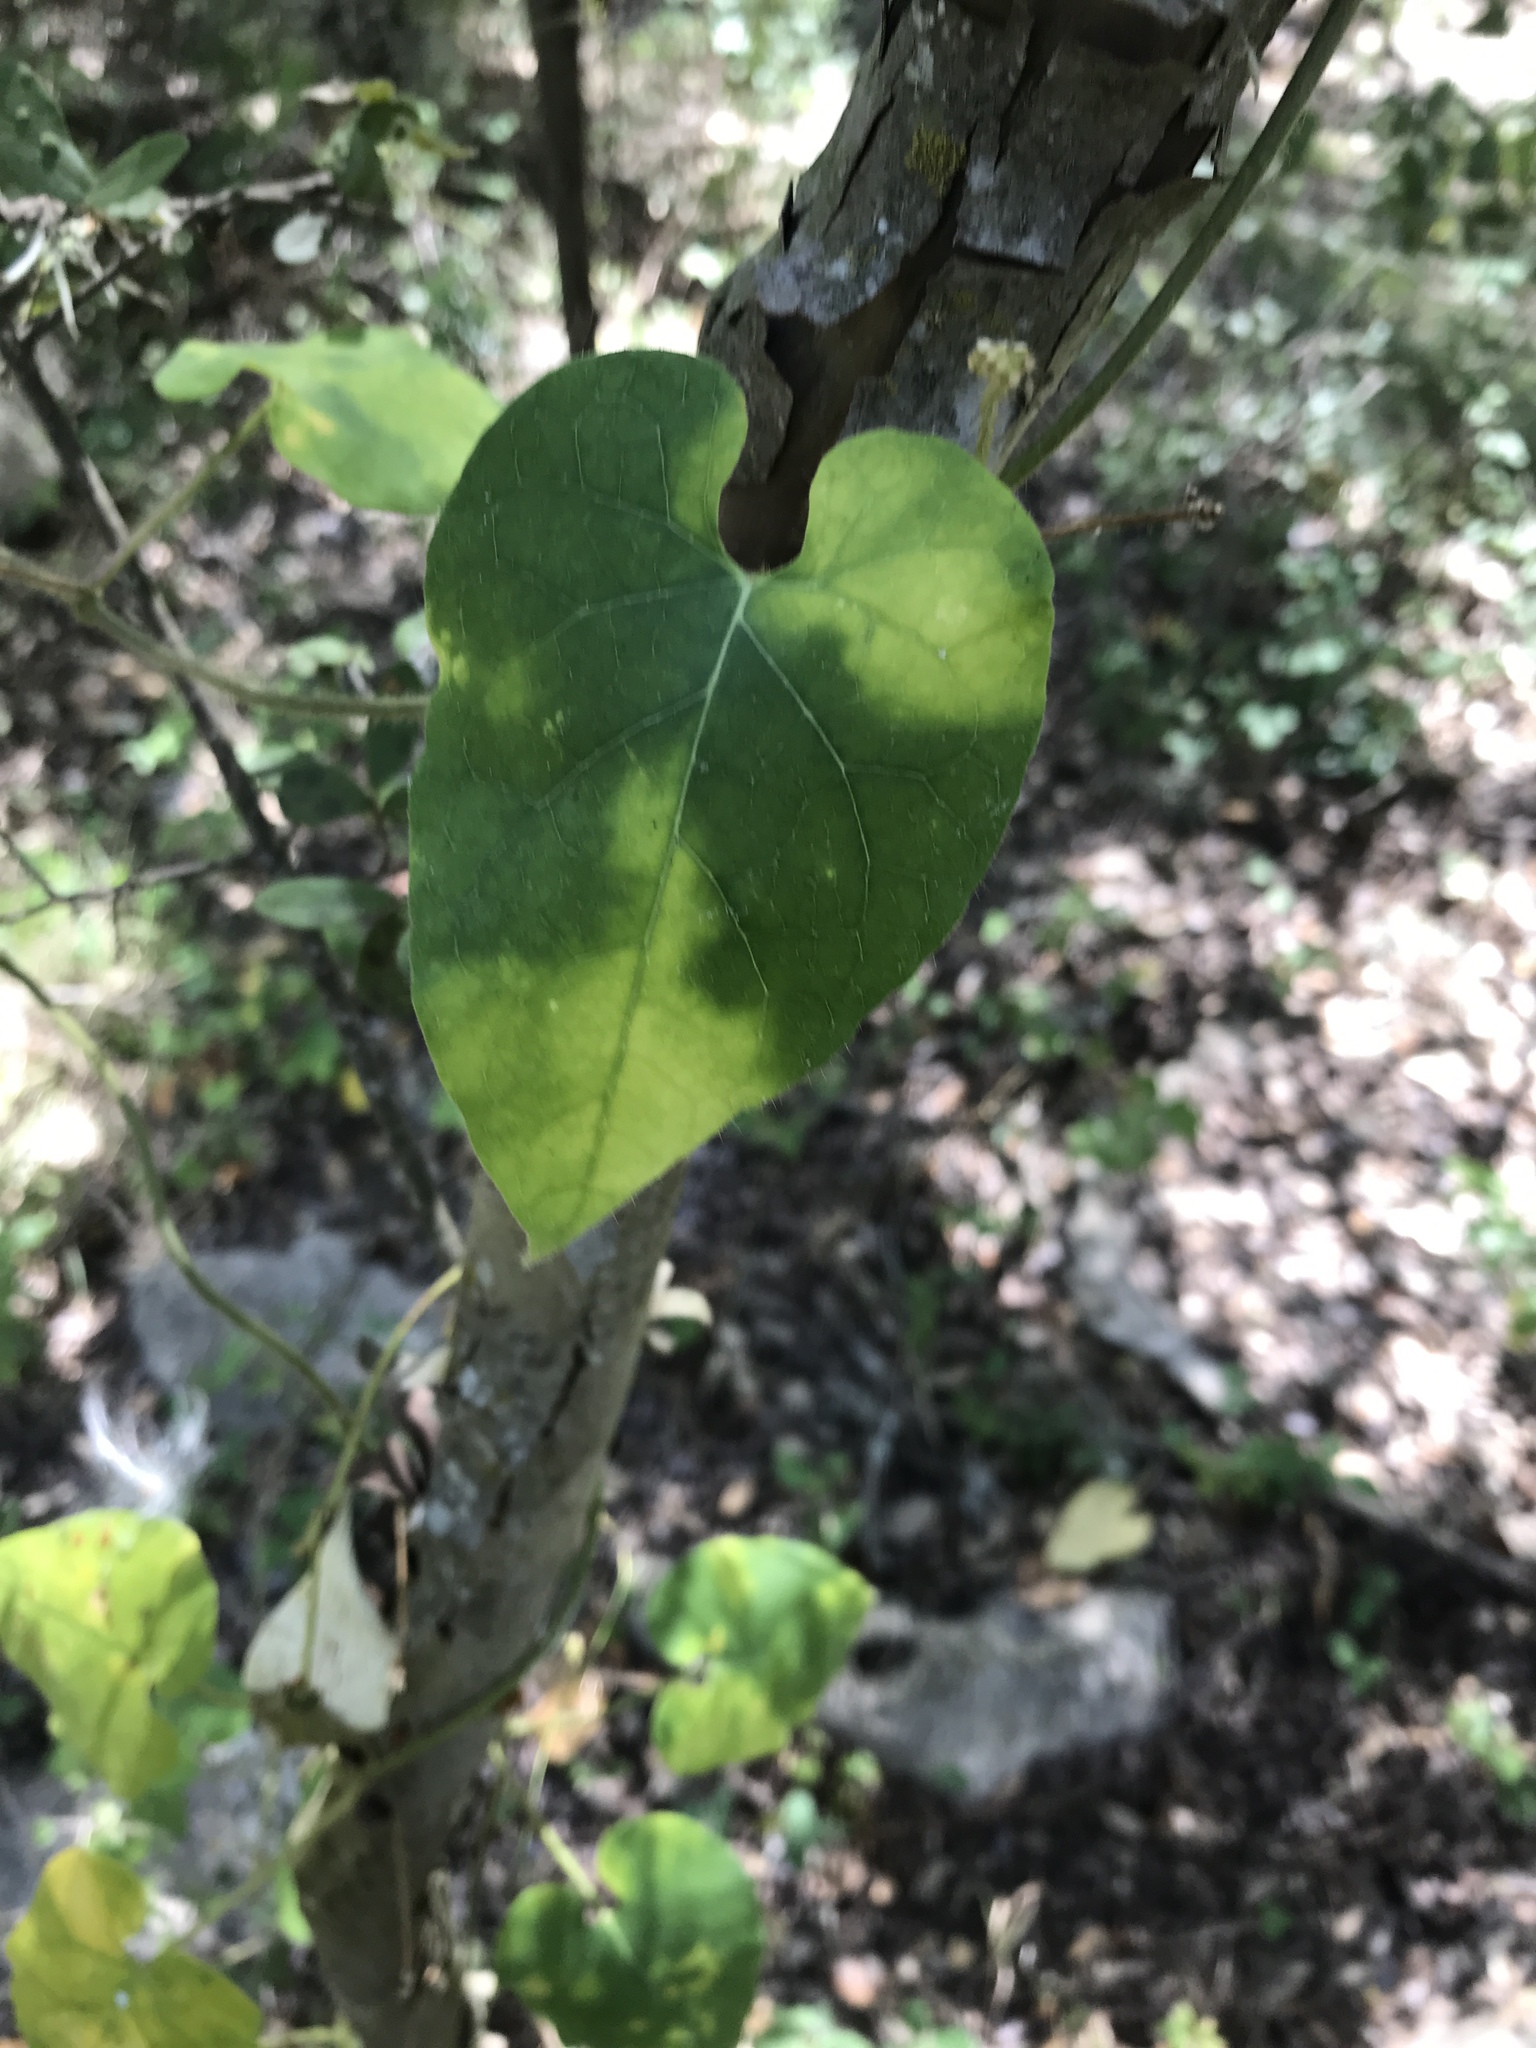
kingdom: Plantae
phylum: Tracheophyta
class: Magnoliopsida
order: Gentianales
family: Apocynaceae
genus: Dictyanthus
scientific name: Dictyanthus reticulatus
